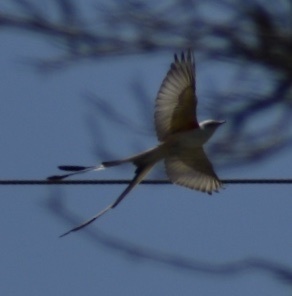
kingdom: Animalia
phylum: Chordata
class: Aves
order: Passeriformes
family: Tyrannidae
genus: Tyrannus
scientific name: Tyrannus forficatus
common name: Scissor-tailed flycatcher
